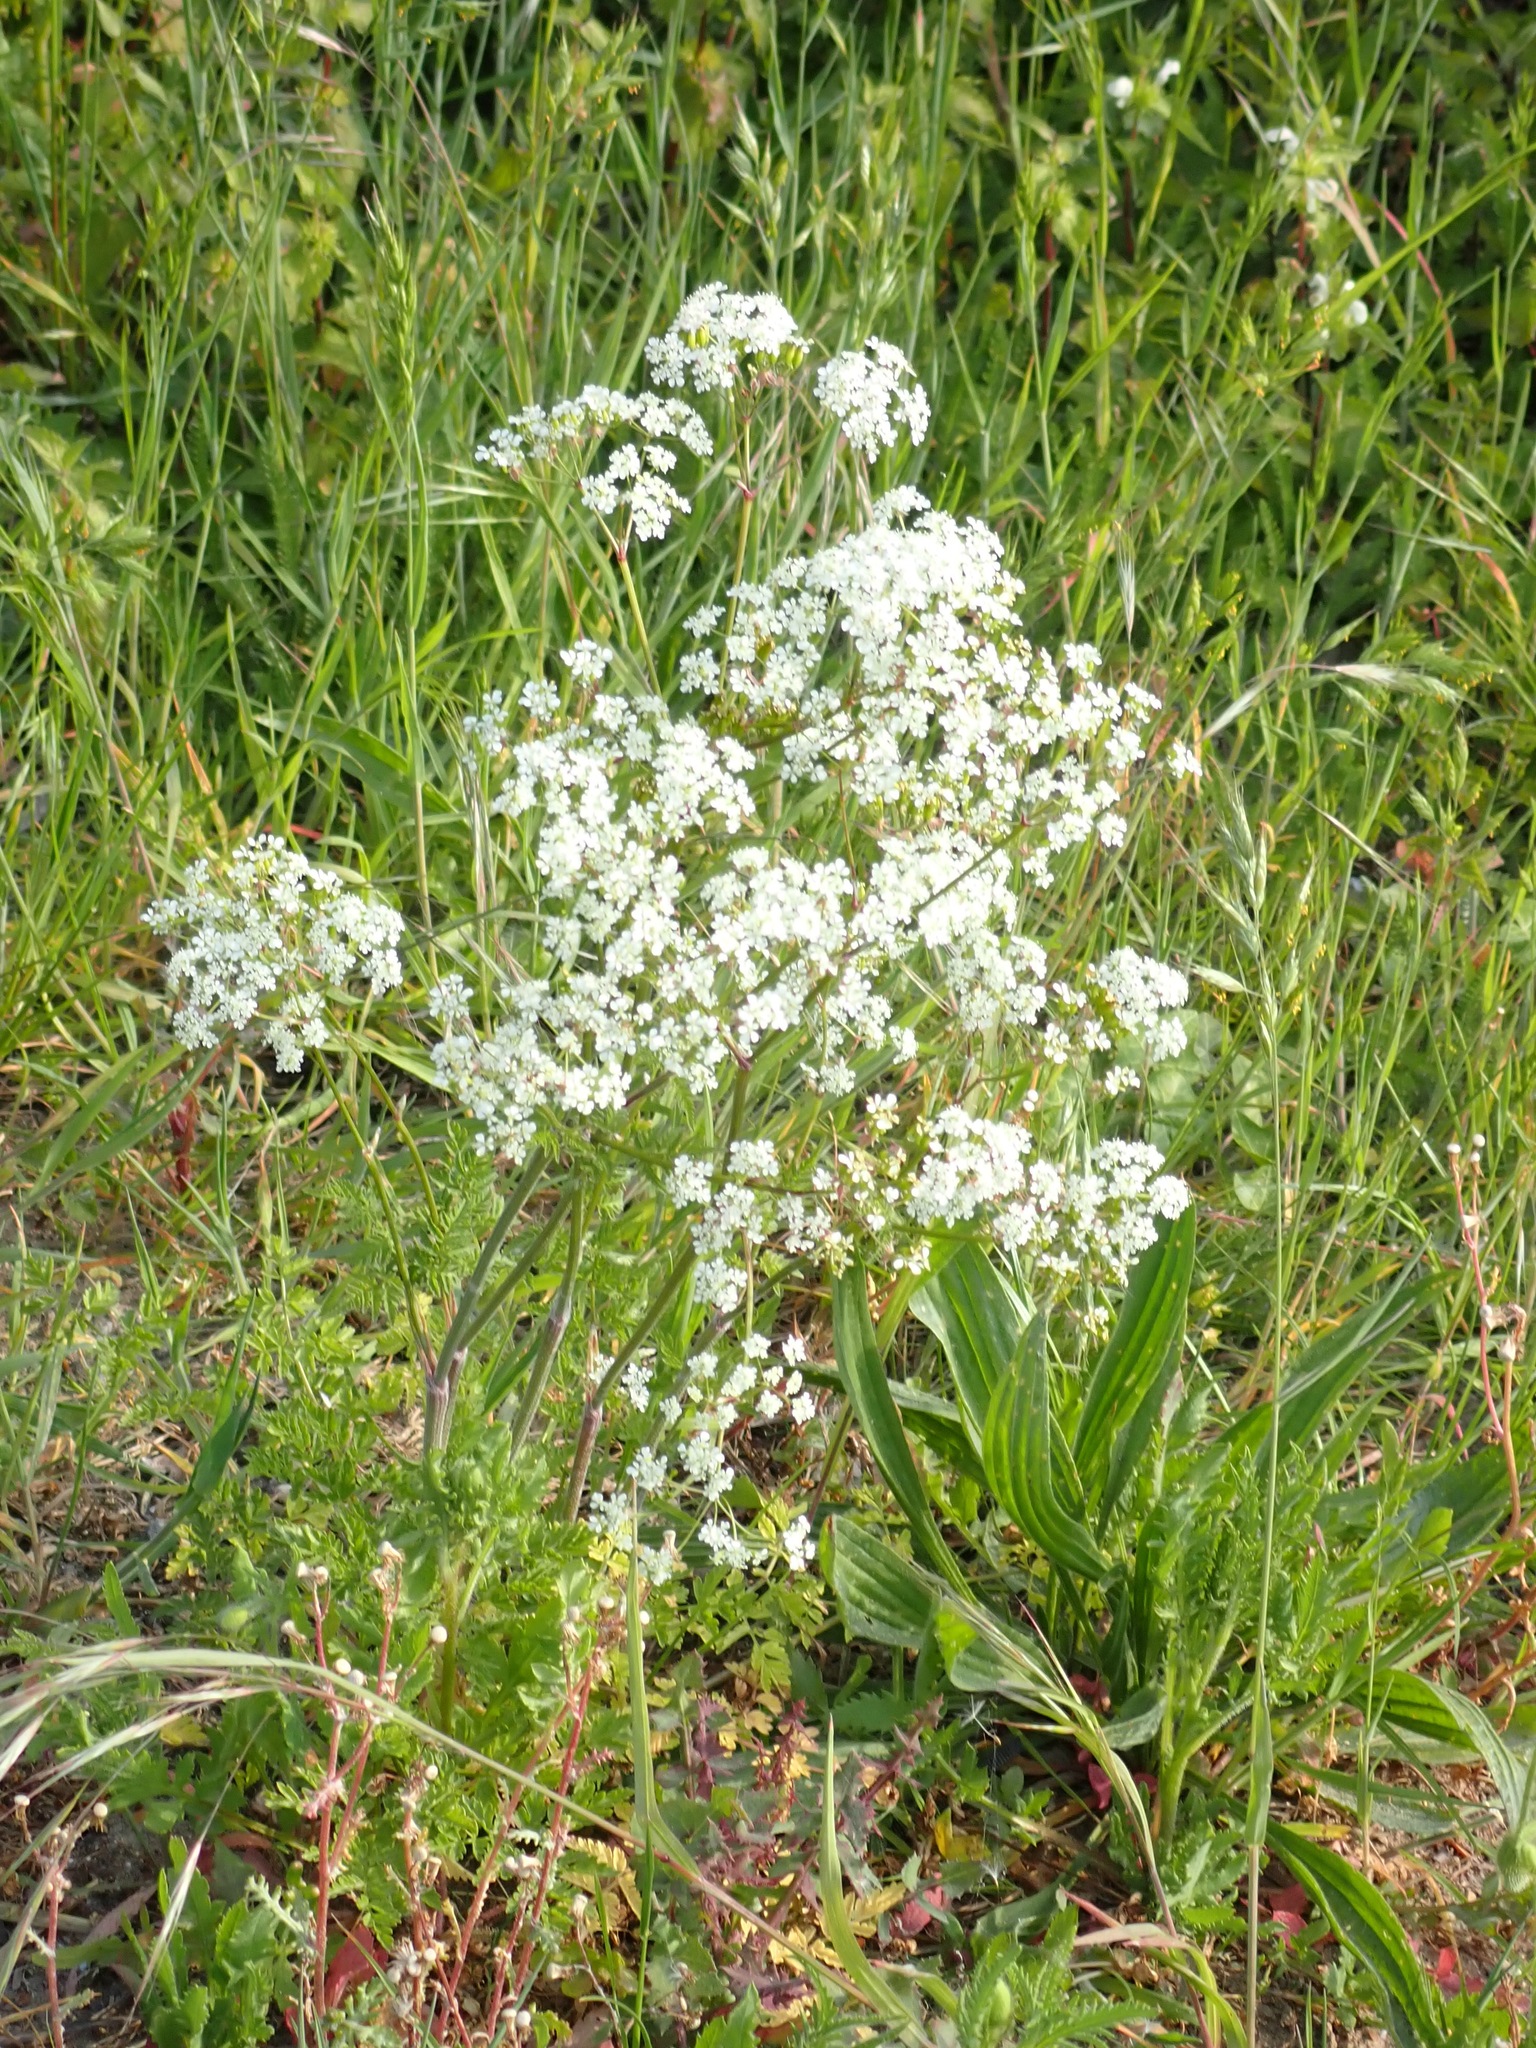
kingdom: Plantae
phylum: Tracheophyta
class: Magnoliopsida
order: Apiales
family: Apiaceae
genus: Anthriscus
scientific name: Anthriscus sylvestris
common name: Cow parsley
